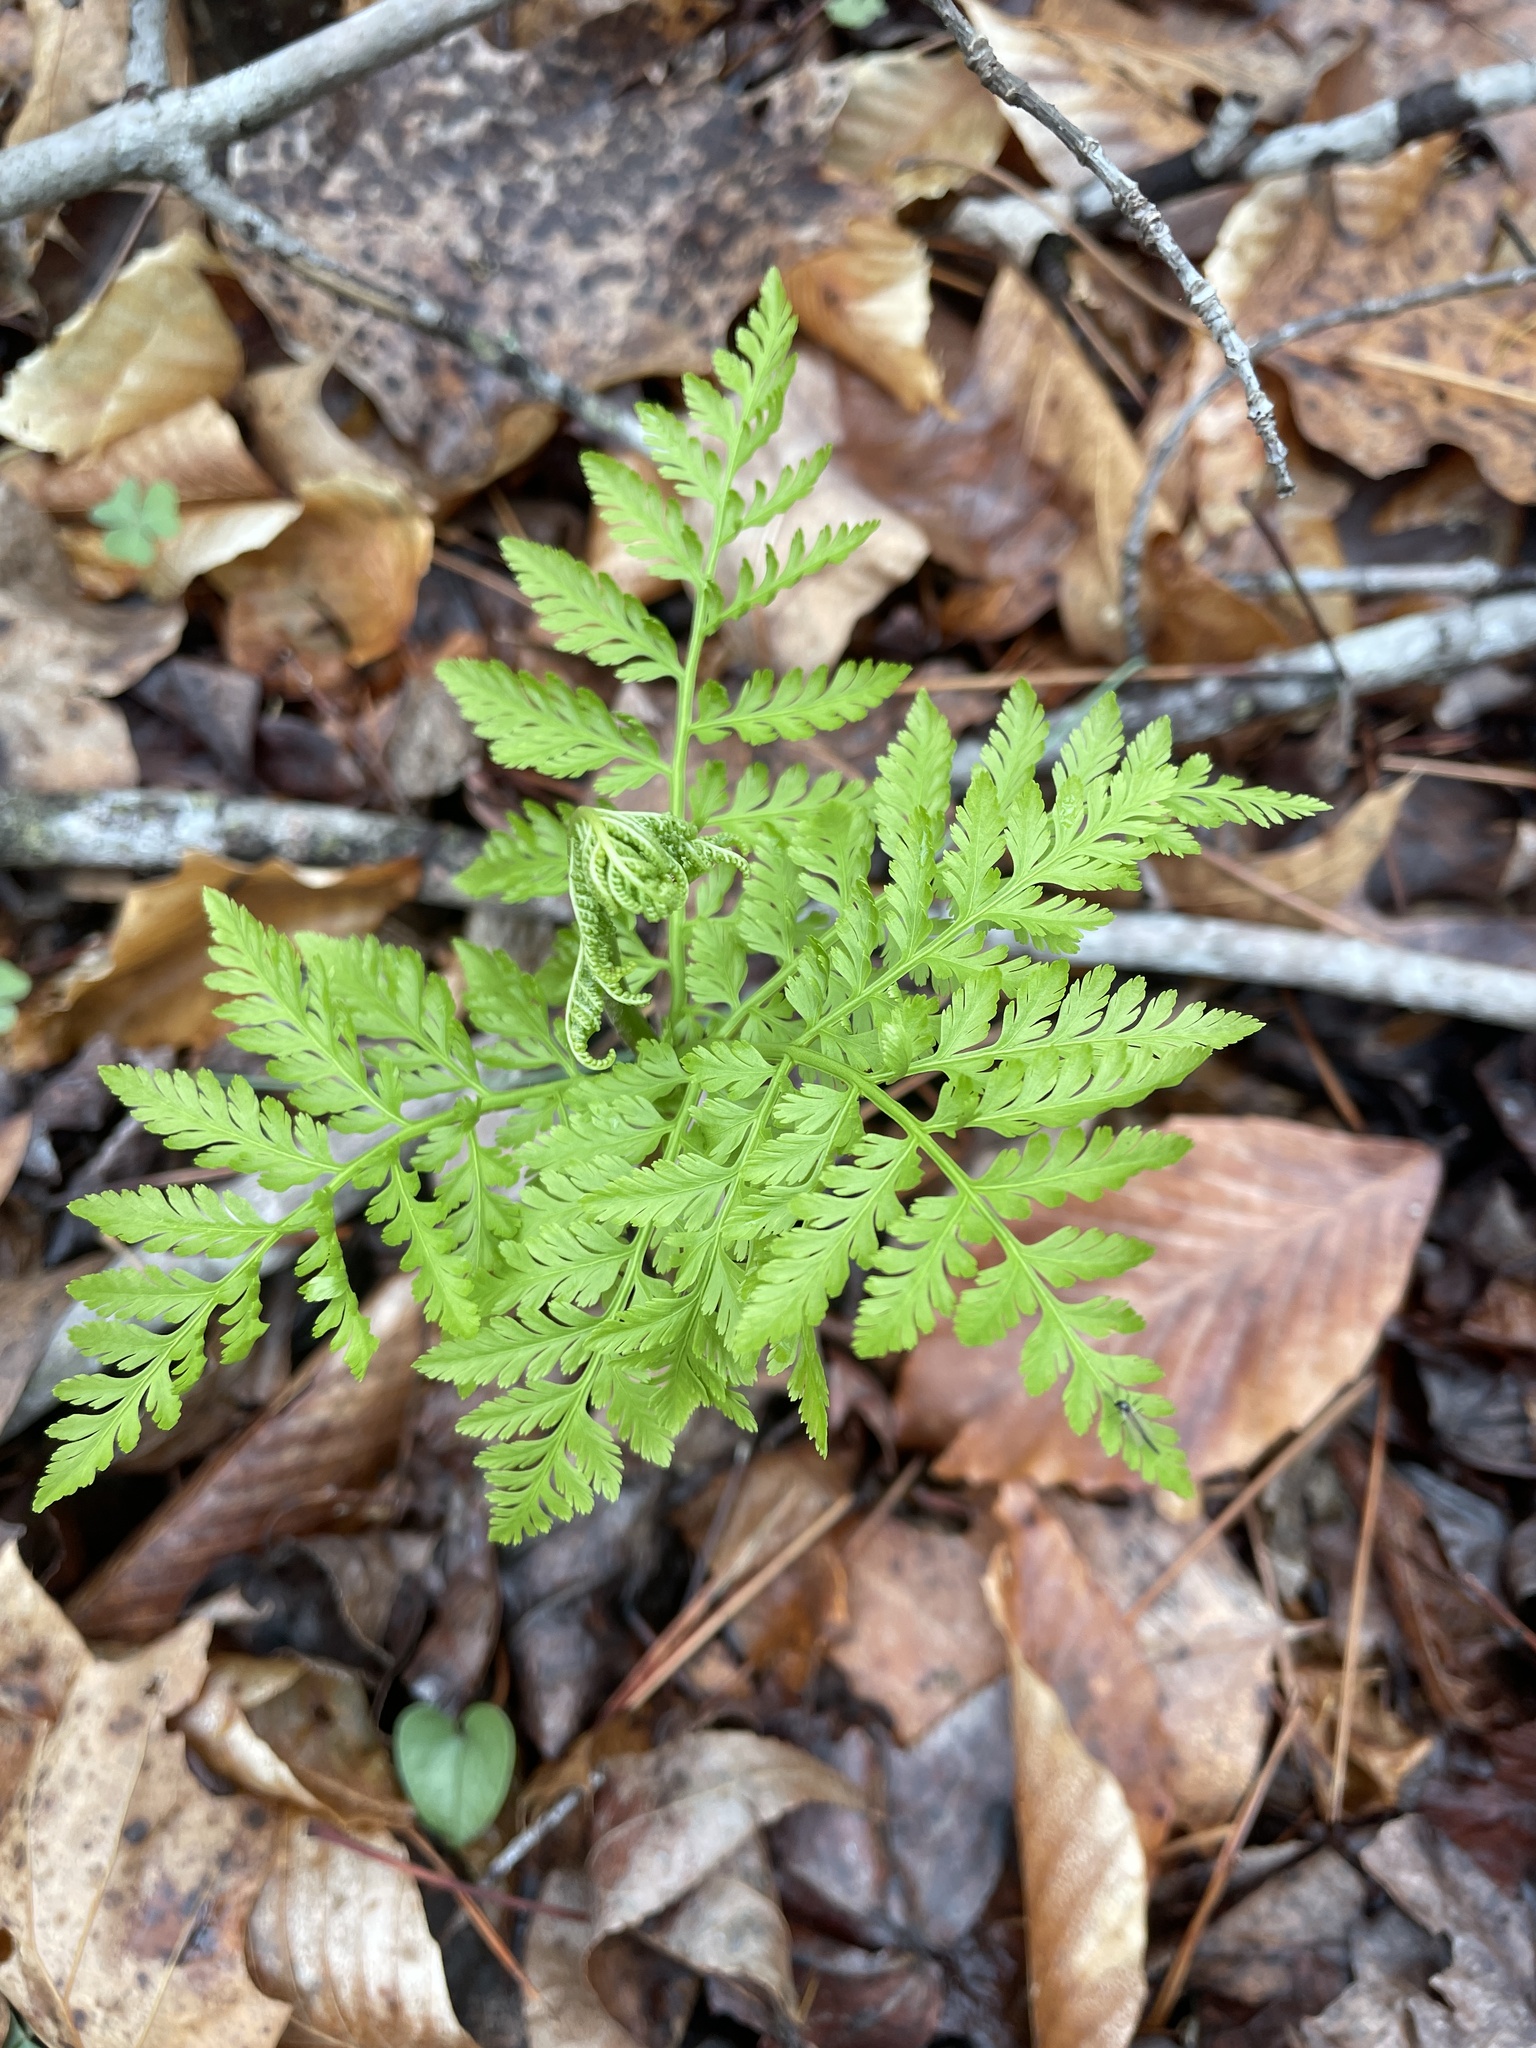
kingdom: Plantae
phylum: Tracheophyta
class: Polypodiopsida
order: Ophioglossales
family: Ophioglossaceae
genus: Botrypus
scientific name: Botrypus virginianus
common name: Common grapefern
